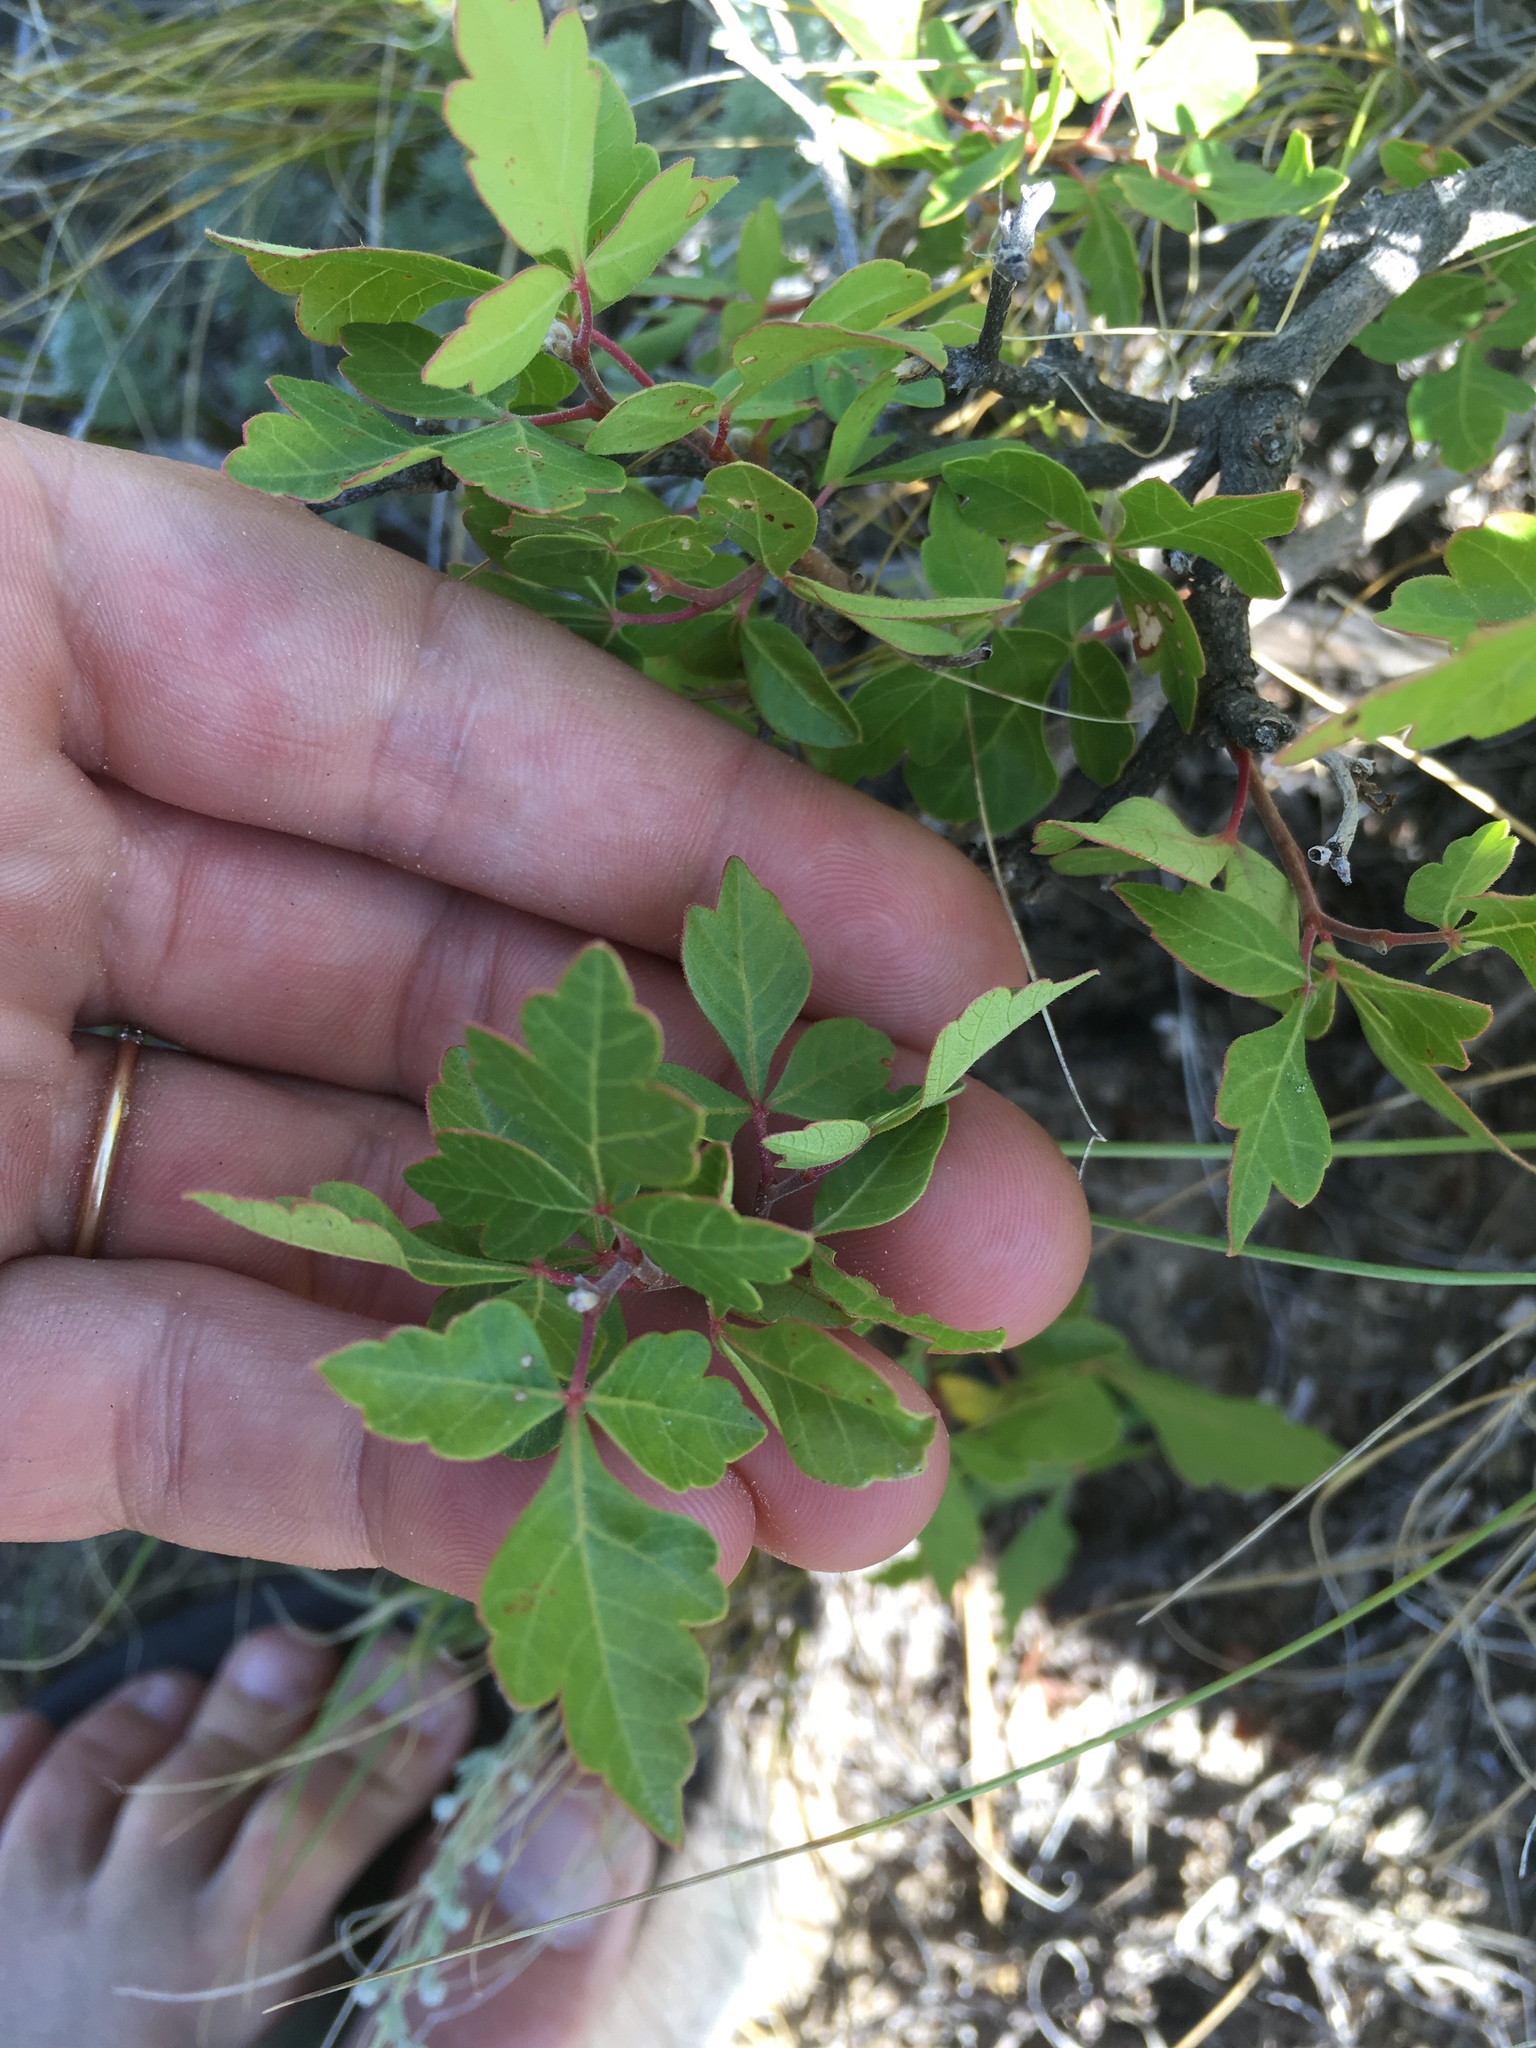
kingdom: Plantae
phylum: Tracheophyta
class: Magnoliopsida
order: Sapindales
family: Anacardiaceae
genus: Rhus
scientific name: Rhus aromatica
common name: Aromatic sumac
